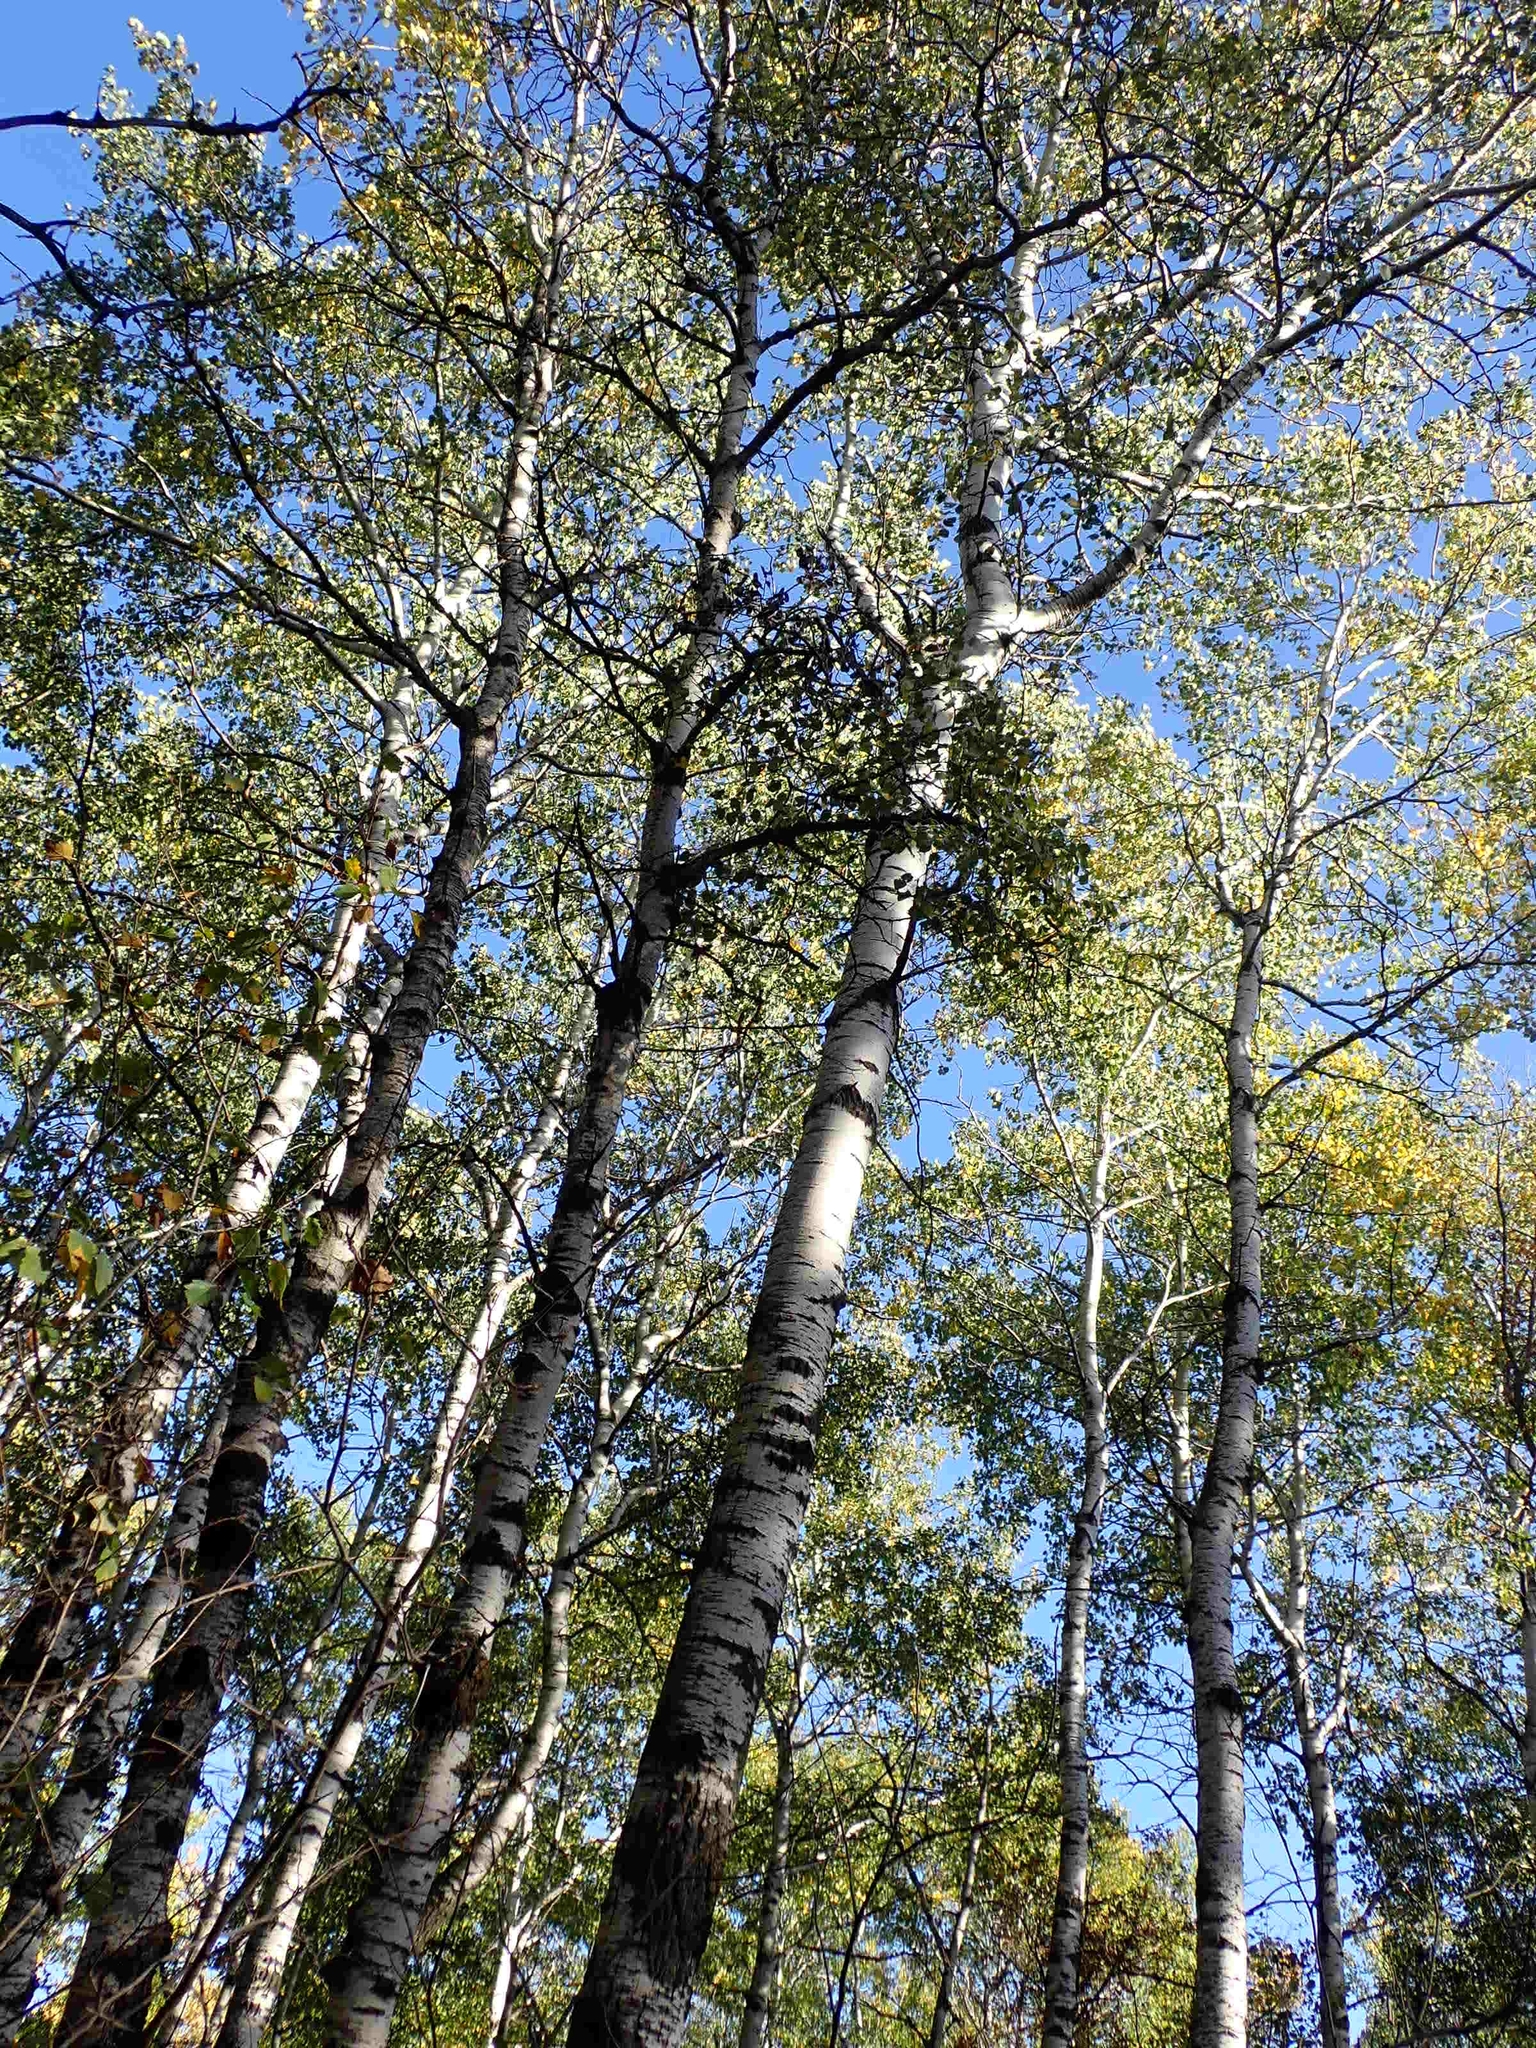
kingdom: Plantae
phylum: Tracheophyta
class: Magnoliopsida
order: Malpighiales
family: Salicaceae
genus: Populus
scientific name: Populus tremuloides
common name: Quaking aspen
